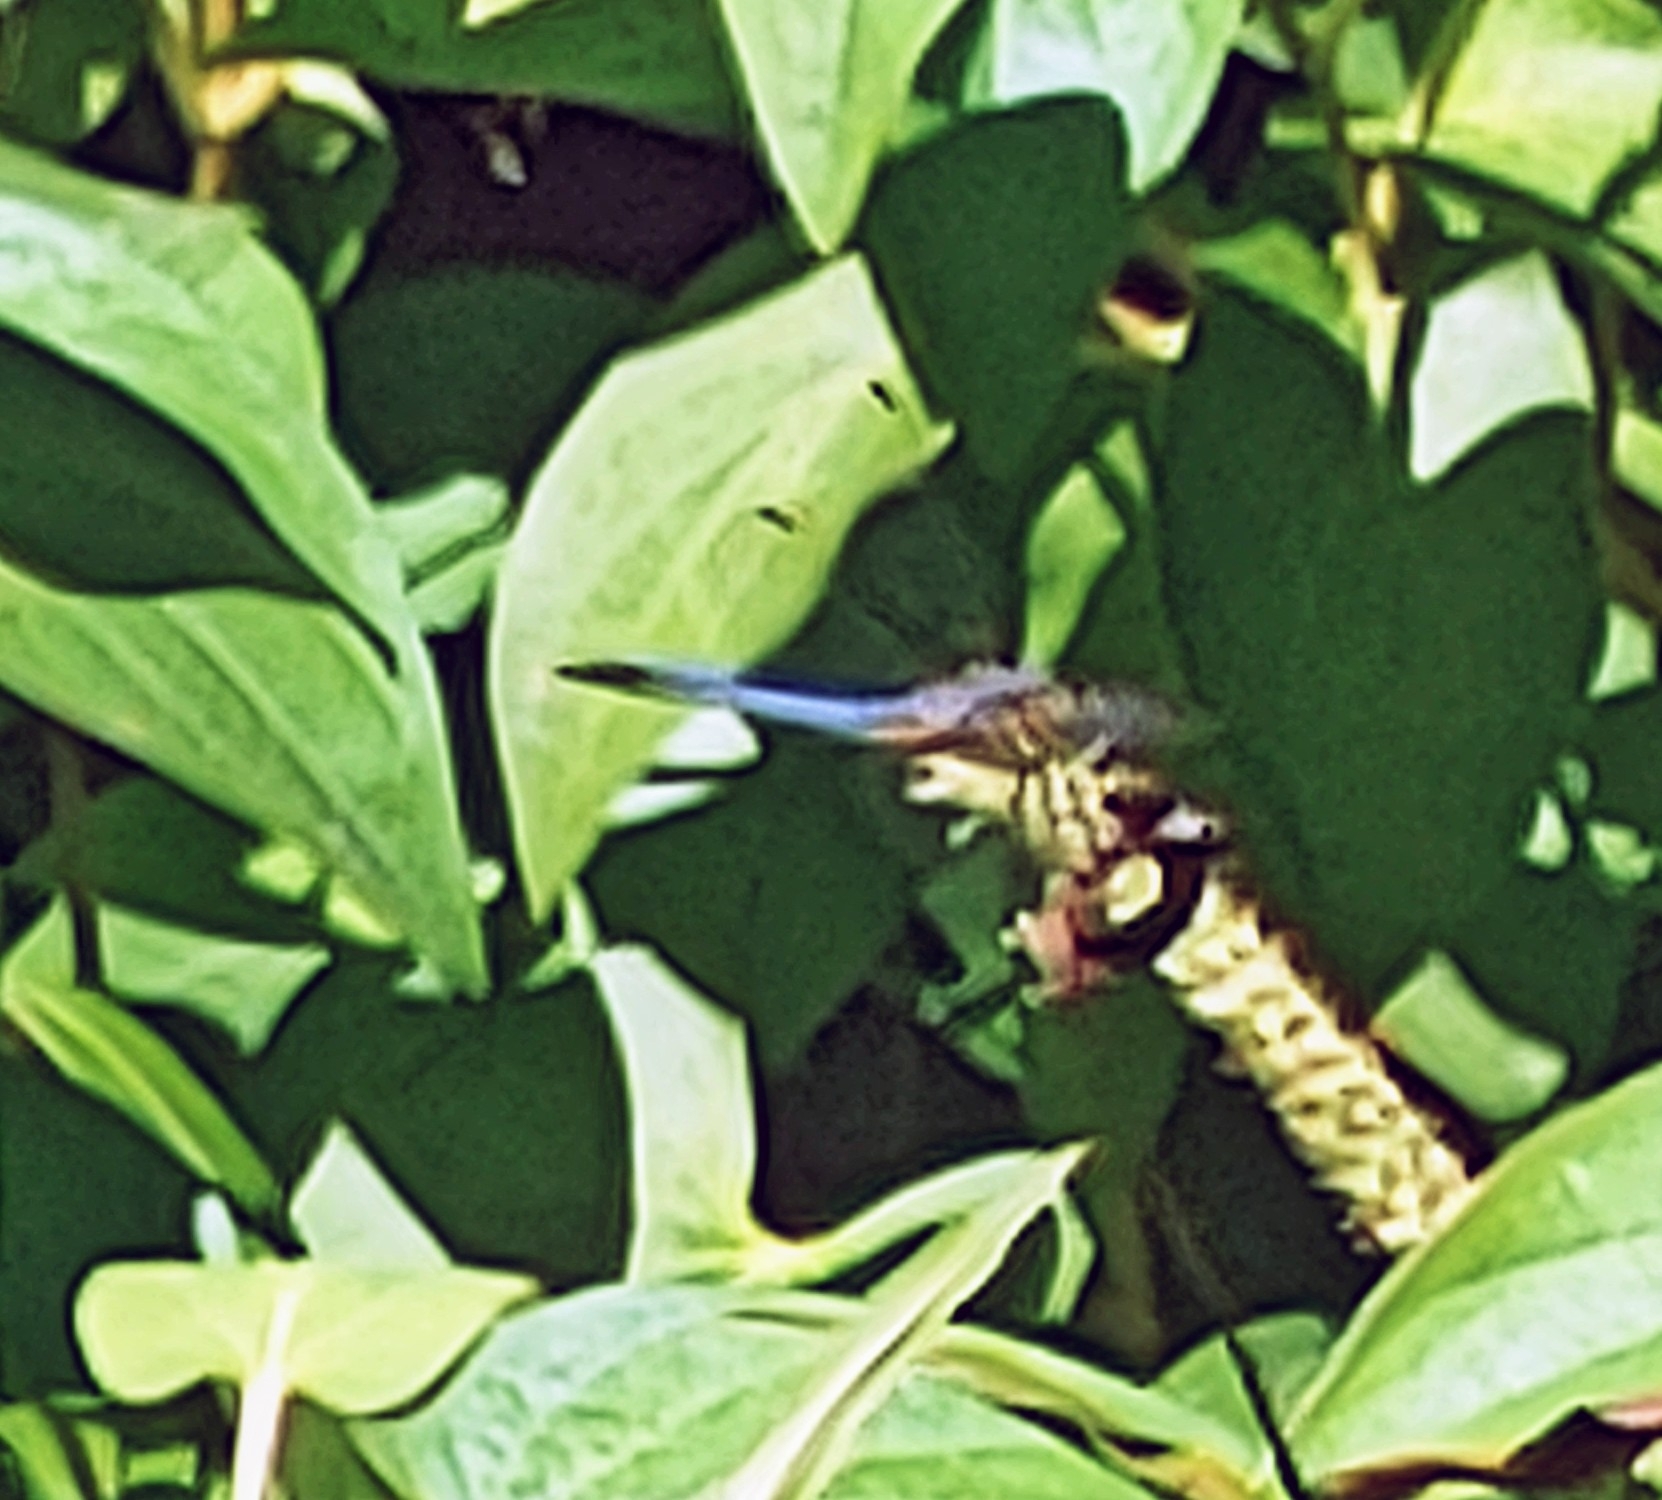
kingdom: Animalia
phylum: Arthropoda
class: Insecta
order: Odonata
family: Libellulidae
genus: Pachydiplax
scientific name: Pachydiplax longipennis
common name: Blue dasher
